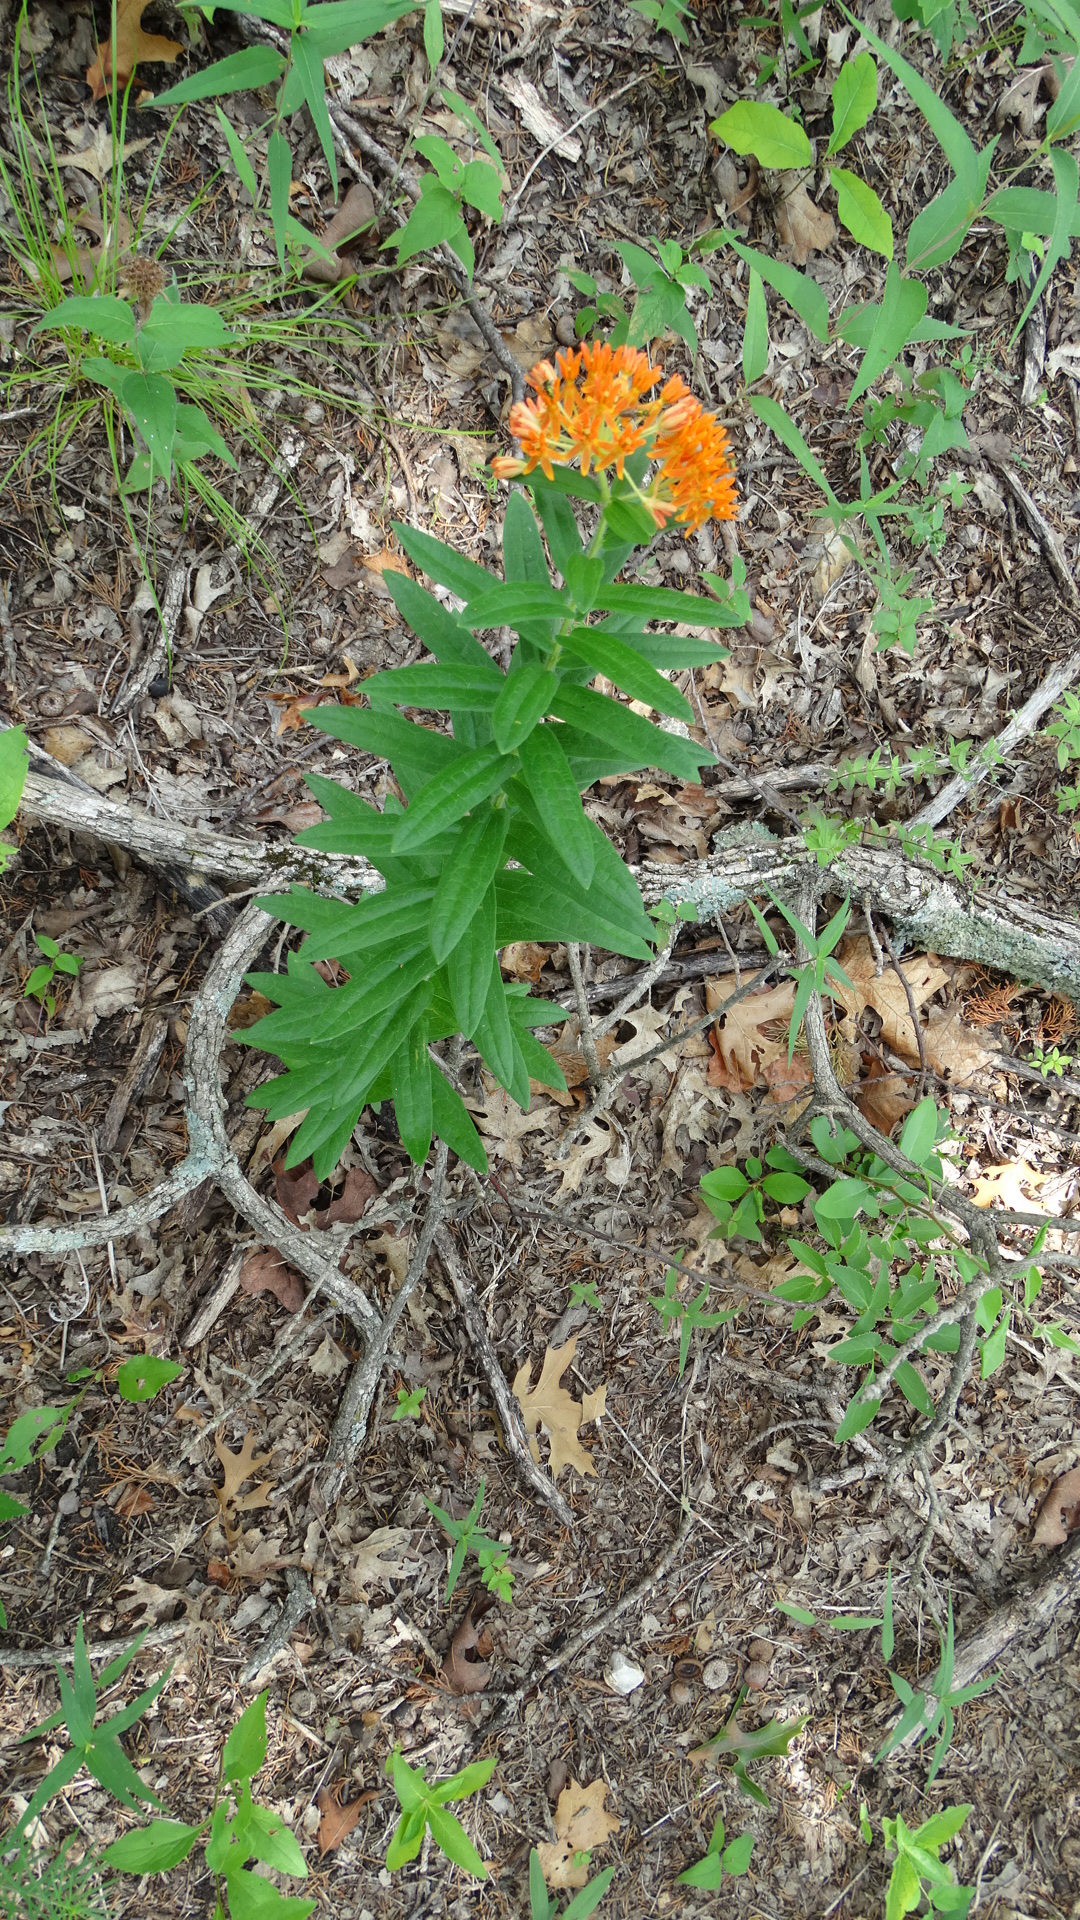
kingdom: Plantae
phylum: Tracheophyta
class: Magnoliopsida
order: Gentianales
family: Apocynaceae
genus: Asclepias
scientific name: Asclepias tuberosa
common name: Butterfly milkweed
